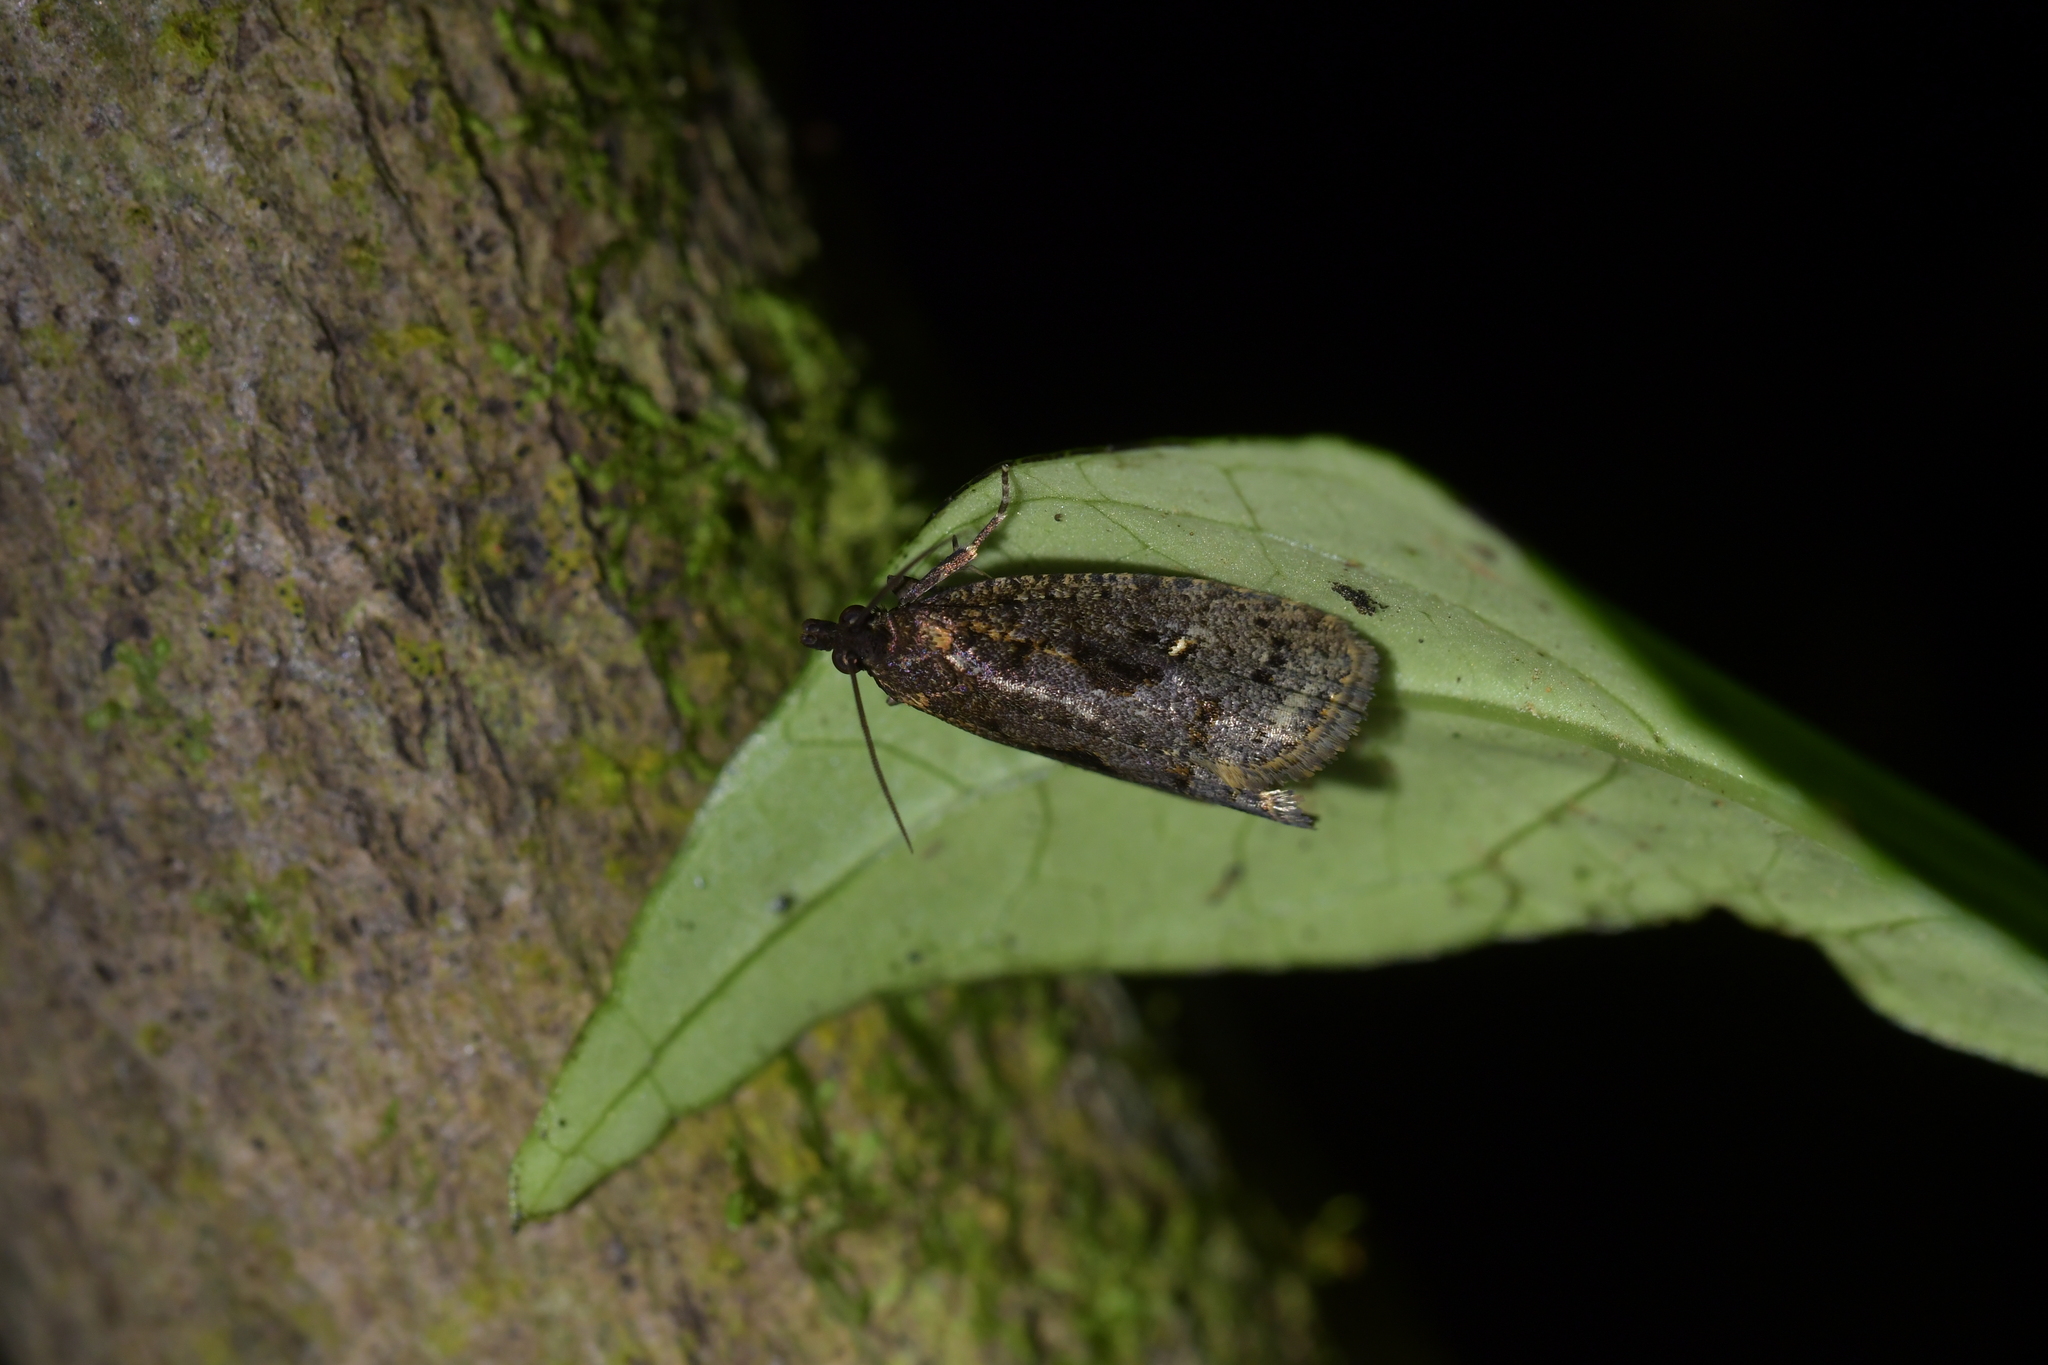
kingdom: Animalia
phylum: Arthropoda
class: Insecta
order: Lepidoptera
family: Tortricidae
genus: Cryptaspasma
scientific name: Cryptaspasma querula
